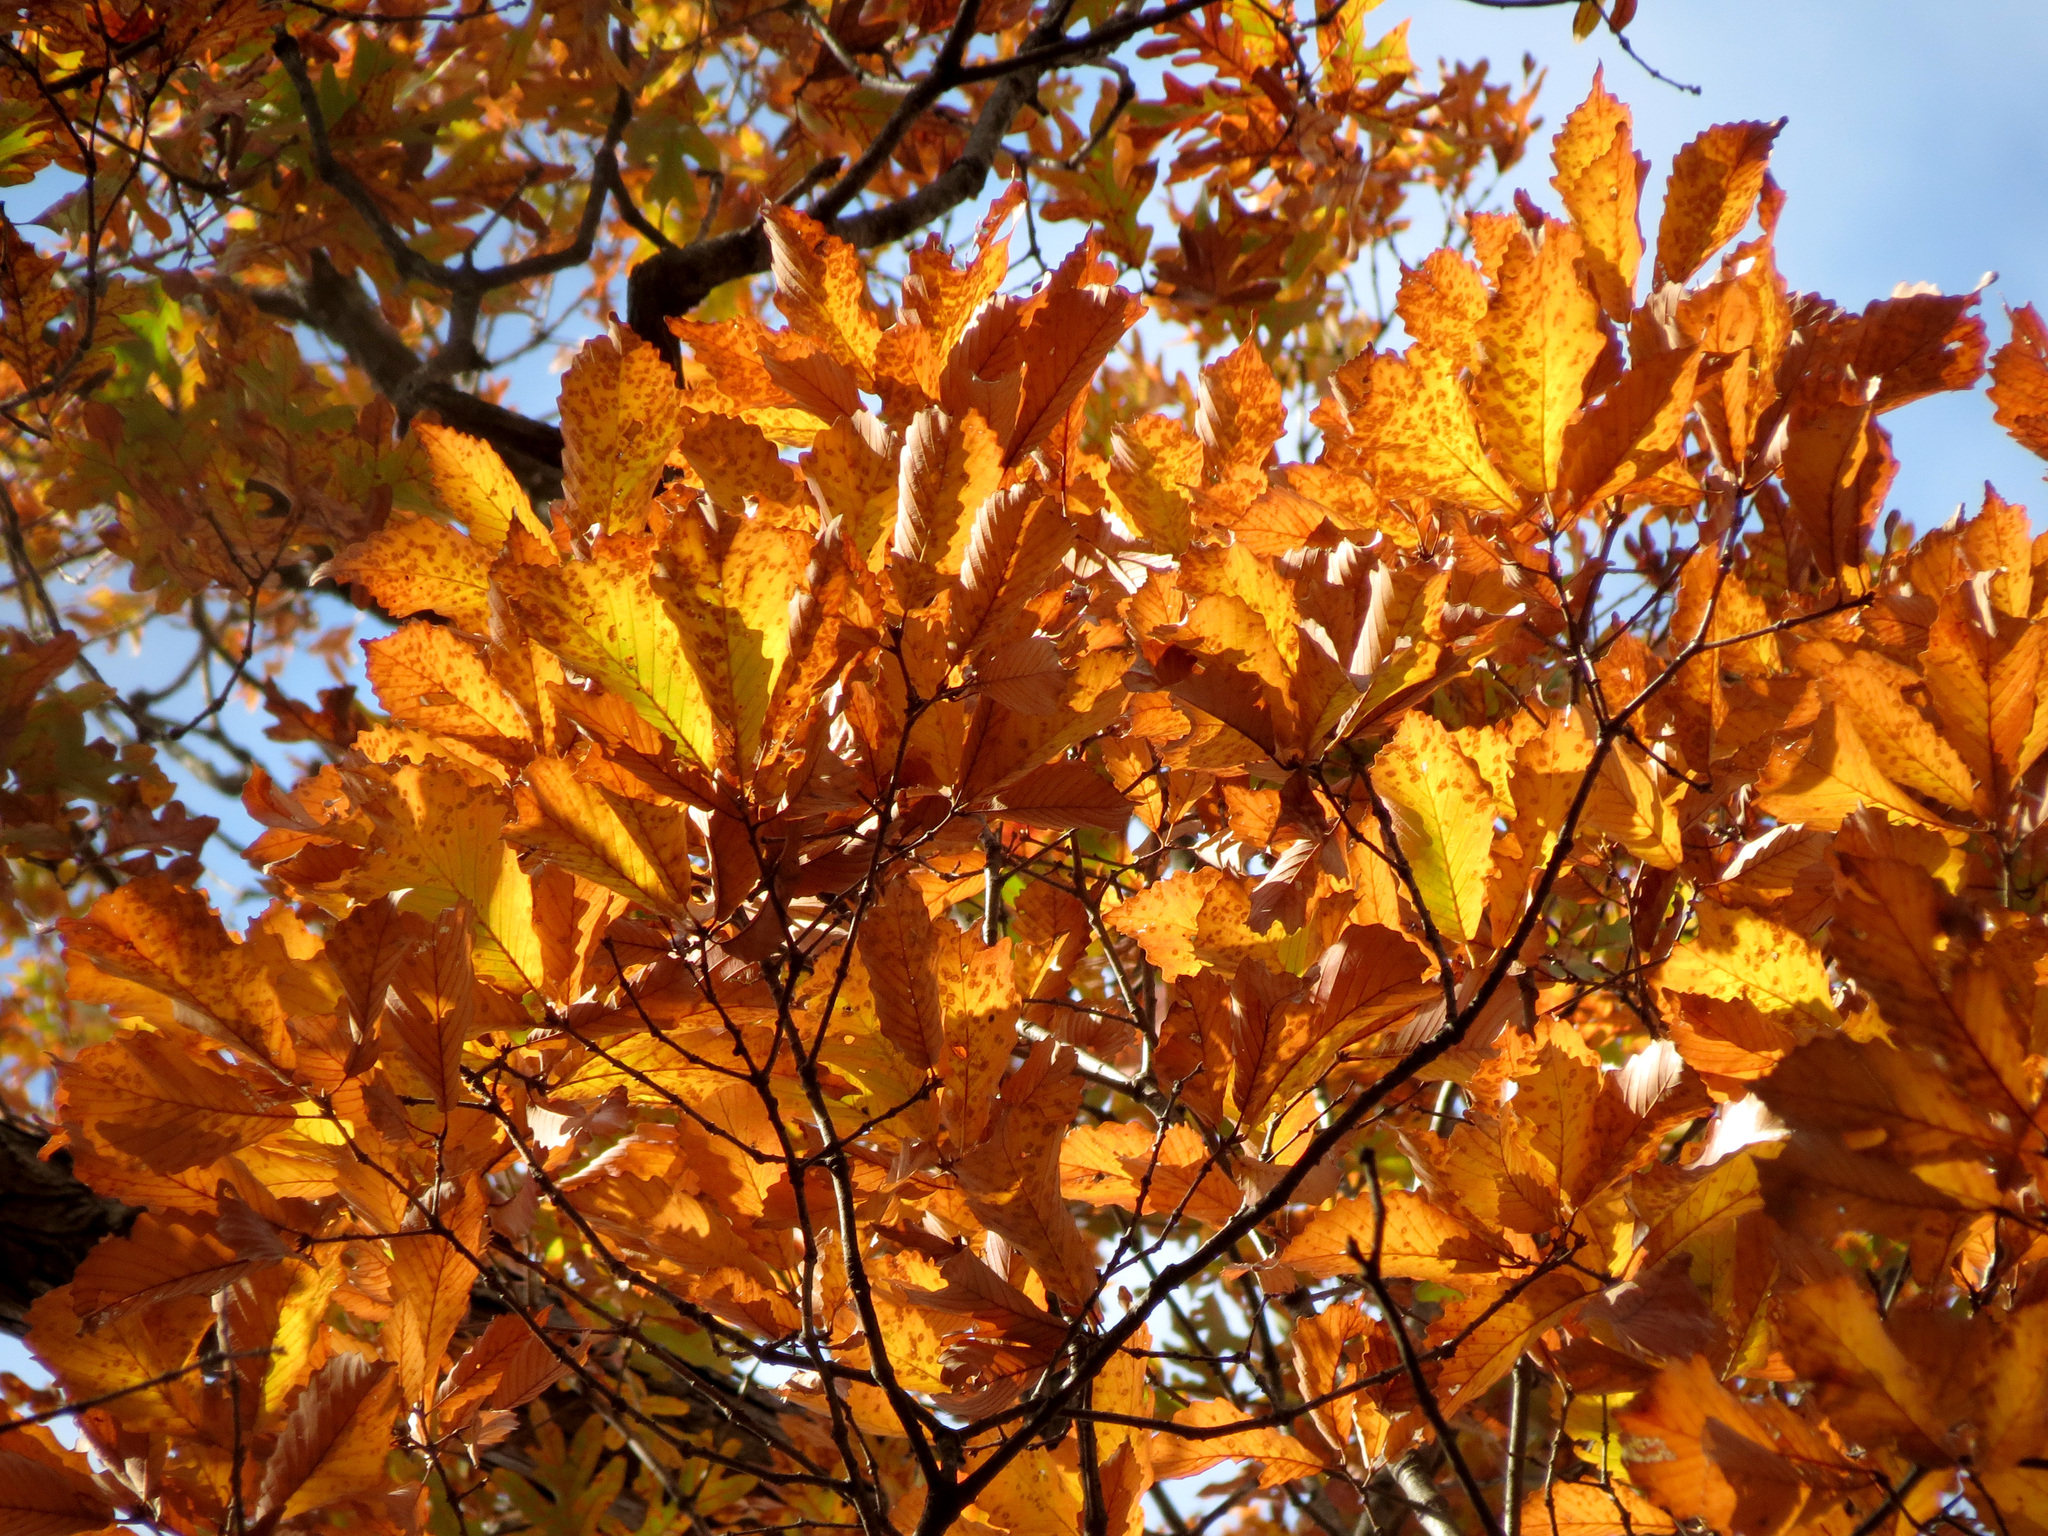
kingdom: Plantae
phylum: Tracheophyta
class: Magnoliopsida
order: Fagales
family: Fagaceae
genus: Quercus
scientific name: Quercus montana
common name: Chestnut oak
